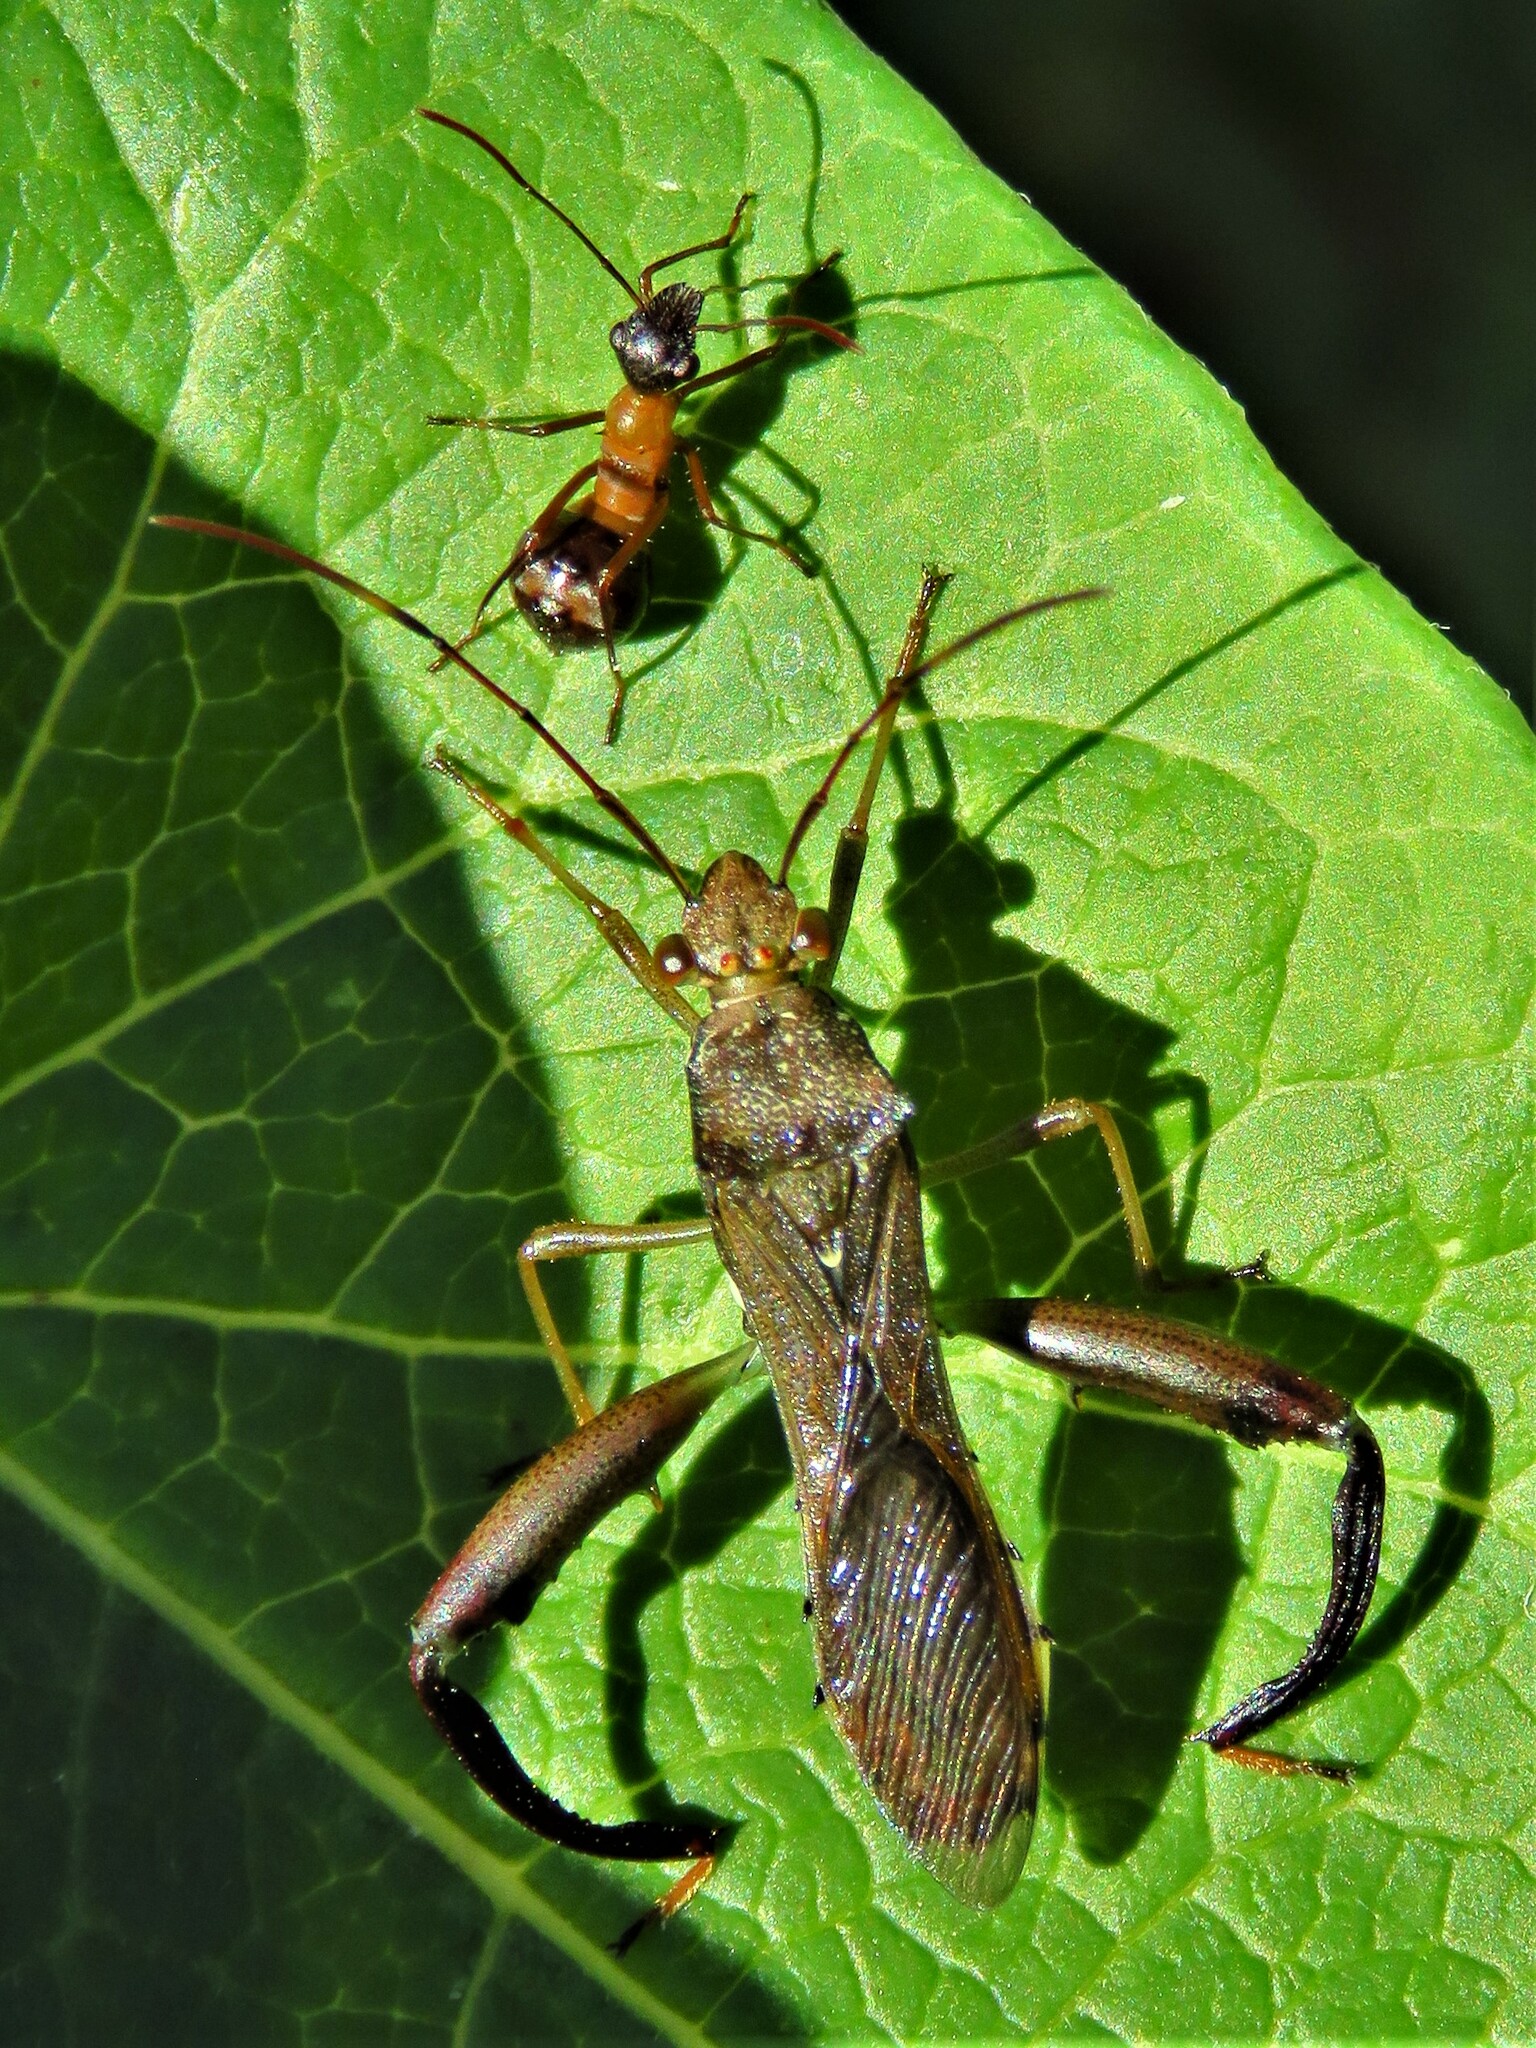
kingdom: Animalia
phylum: Arthropoda
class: Insecta
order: Hemiptera
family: Alydidae
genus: Hyalymenus
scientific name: Hyalymenus tarsatus
